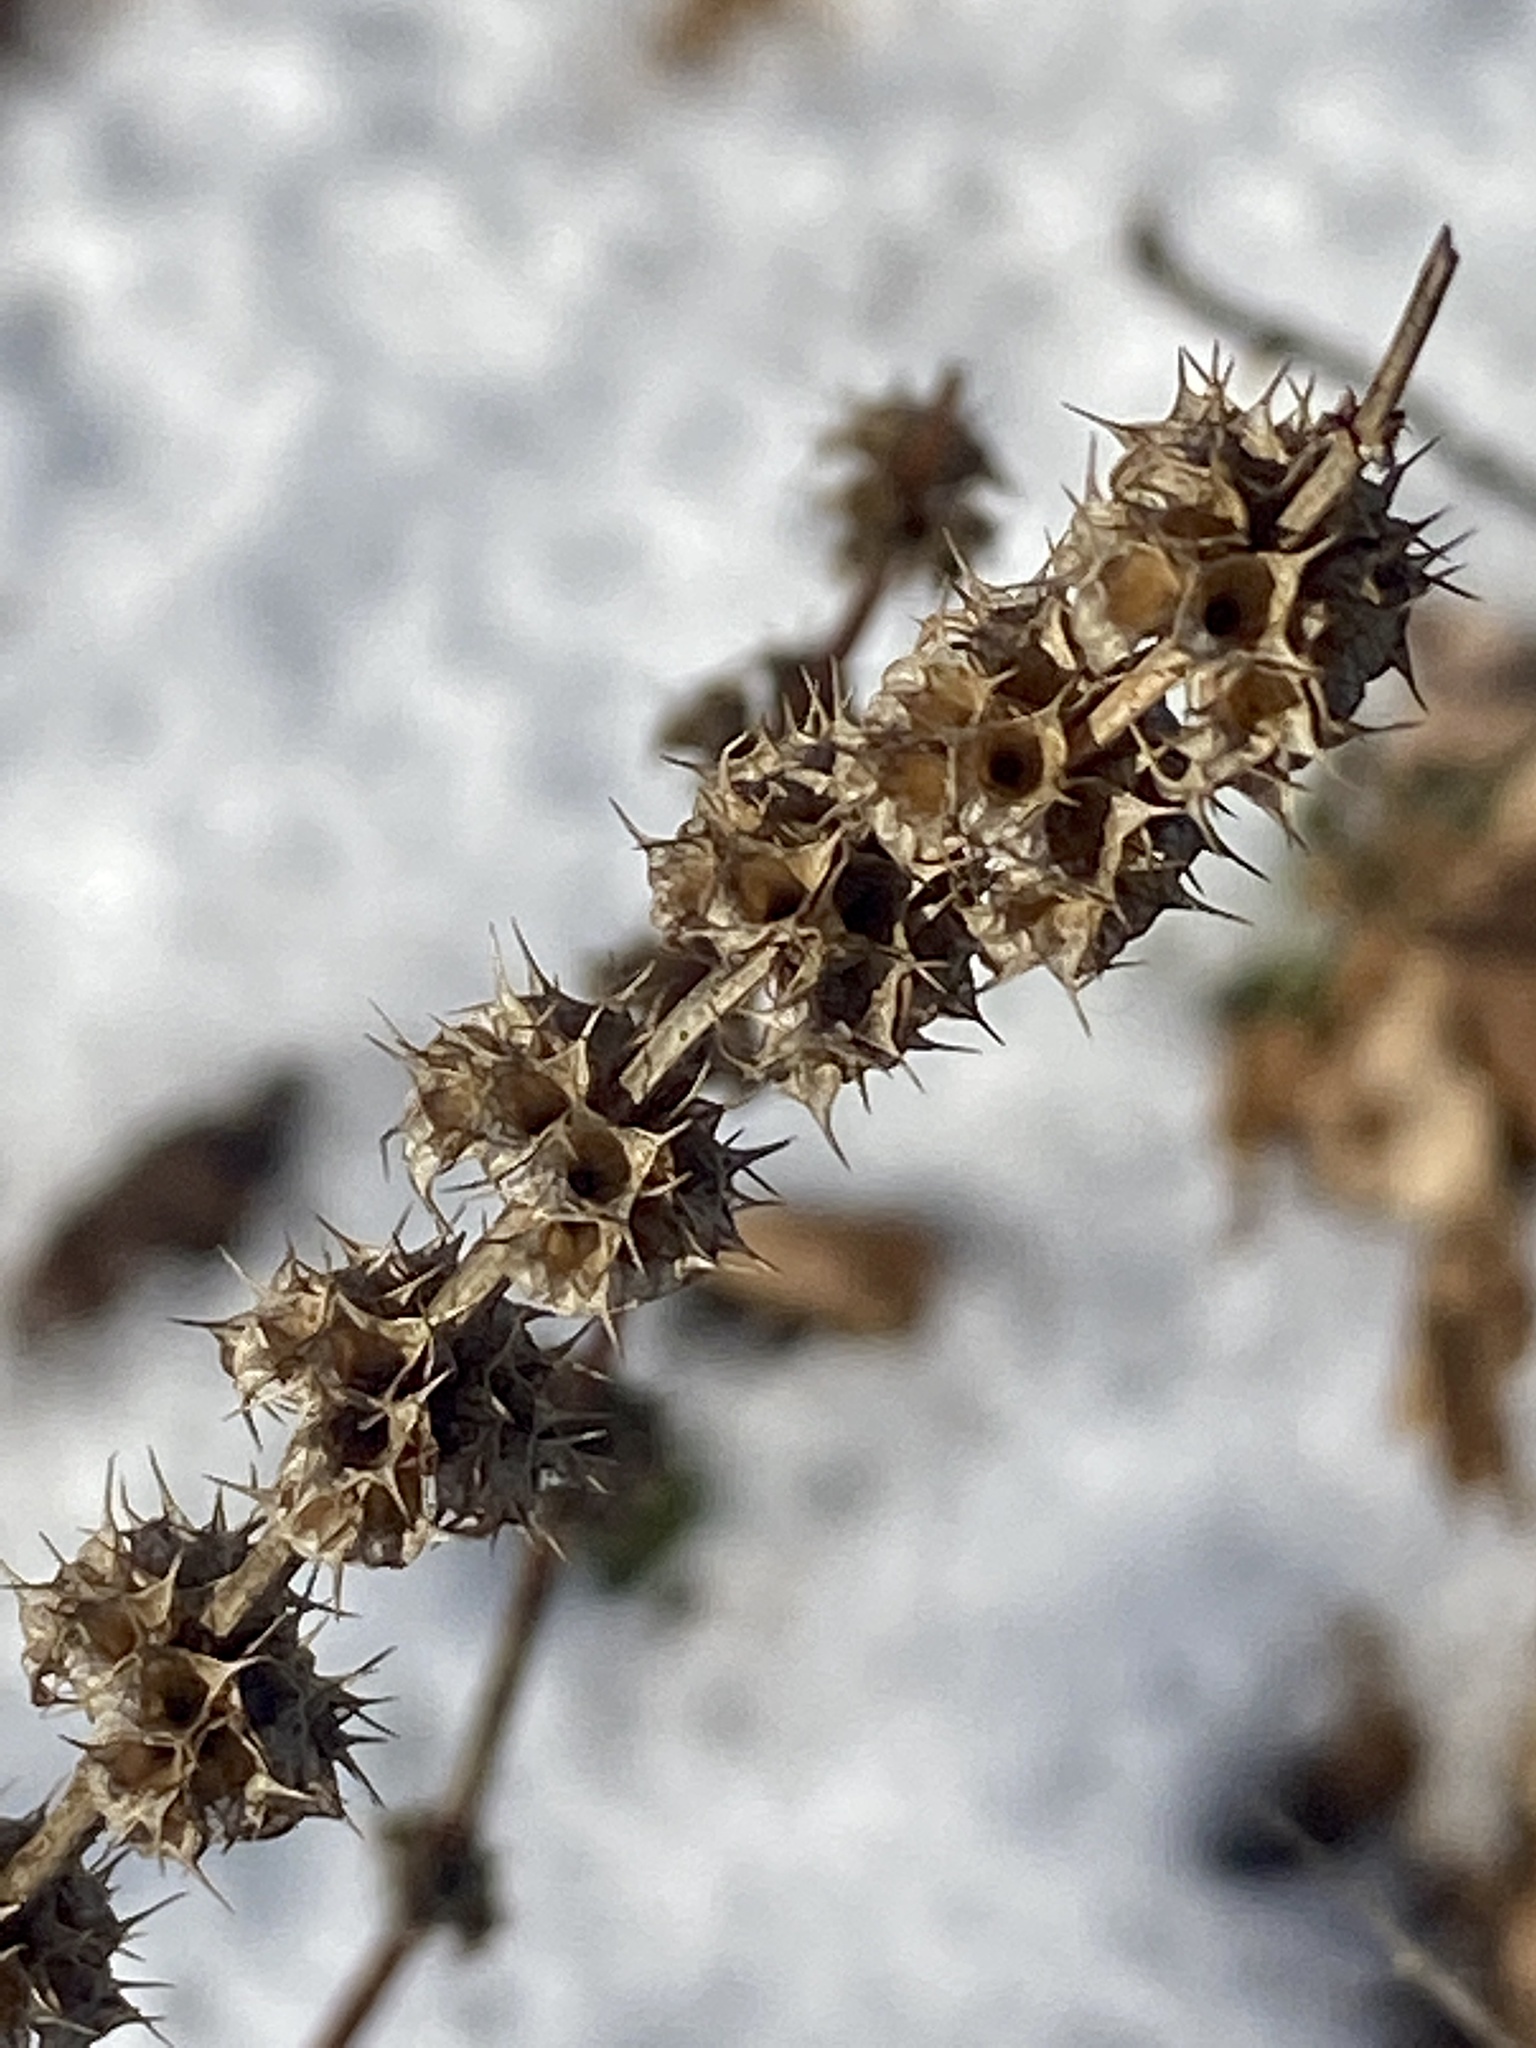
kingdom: Plantae
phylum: Tracheophyta
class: Magnoliopsida
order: Lamiales
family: Lamiaceae
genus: Leonurus
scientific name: Leonurus cardiaca
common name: Motherwort
